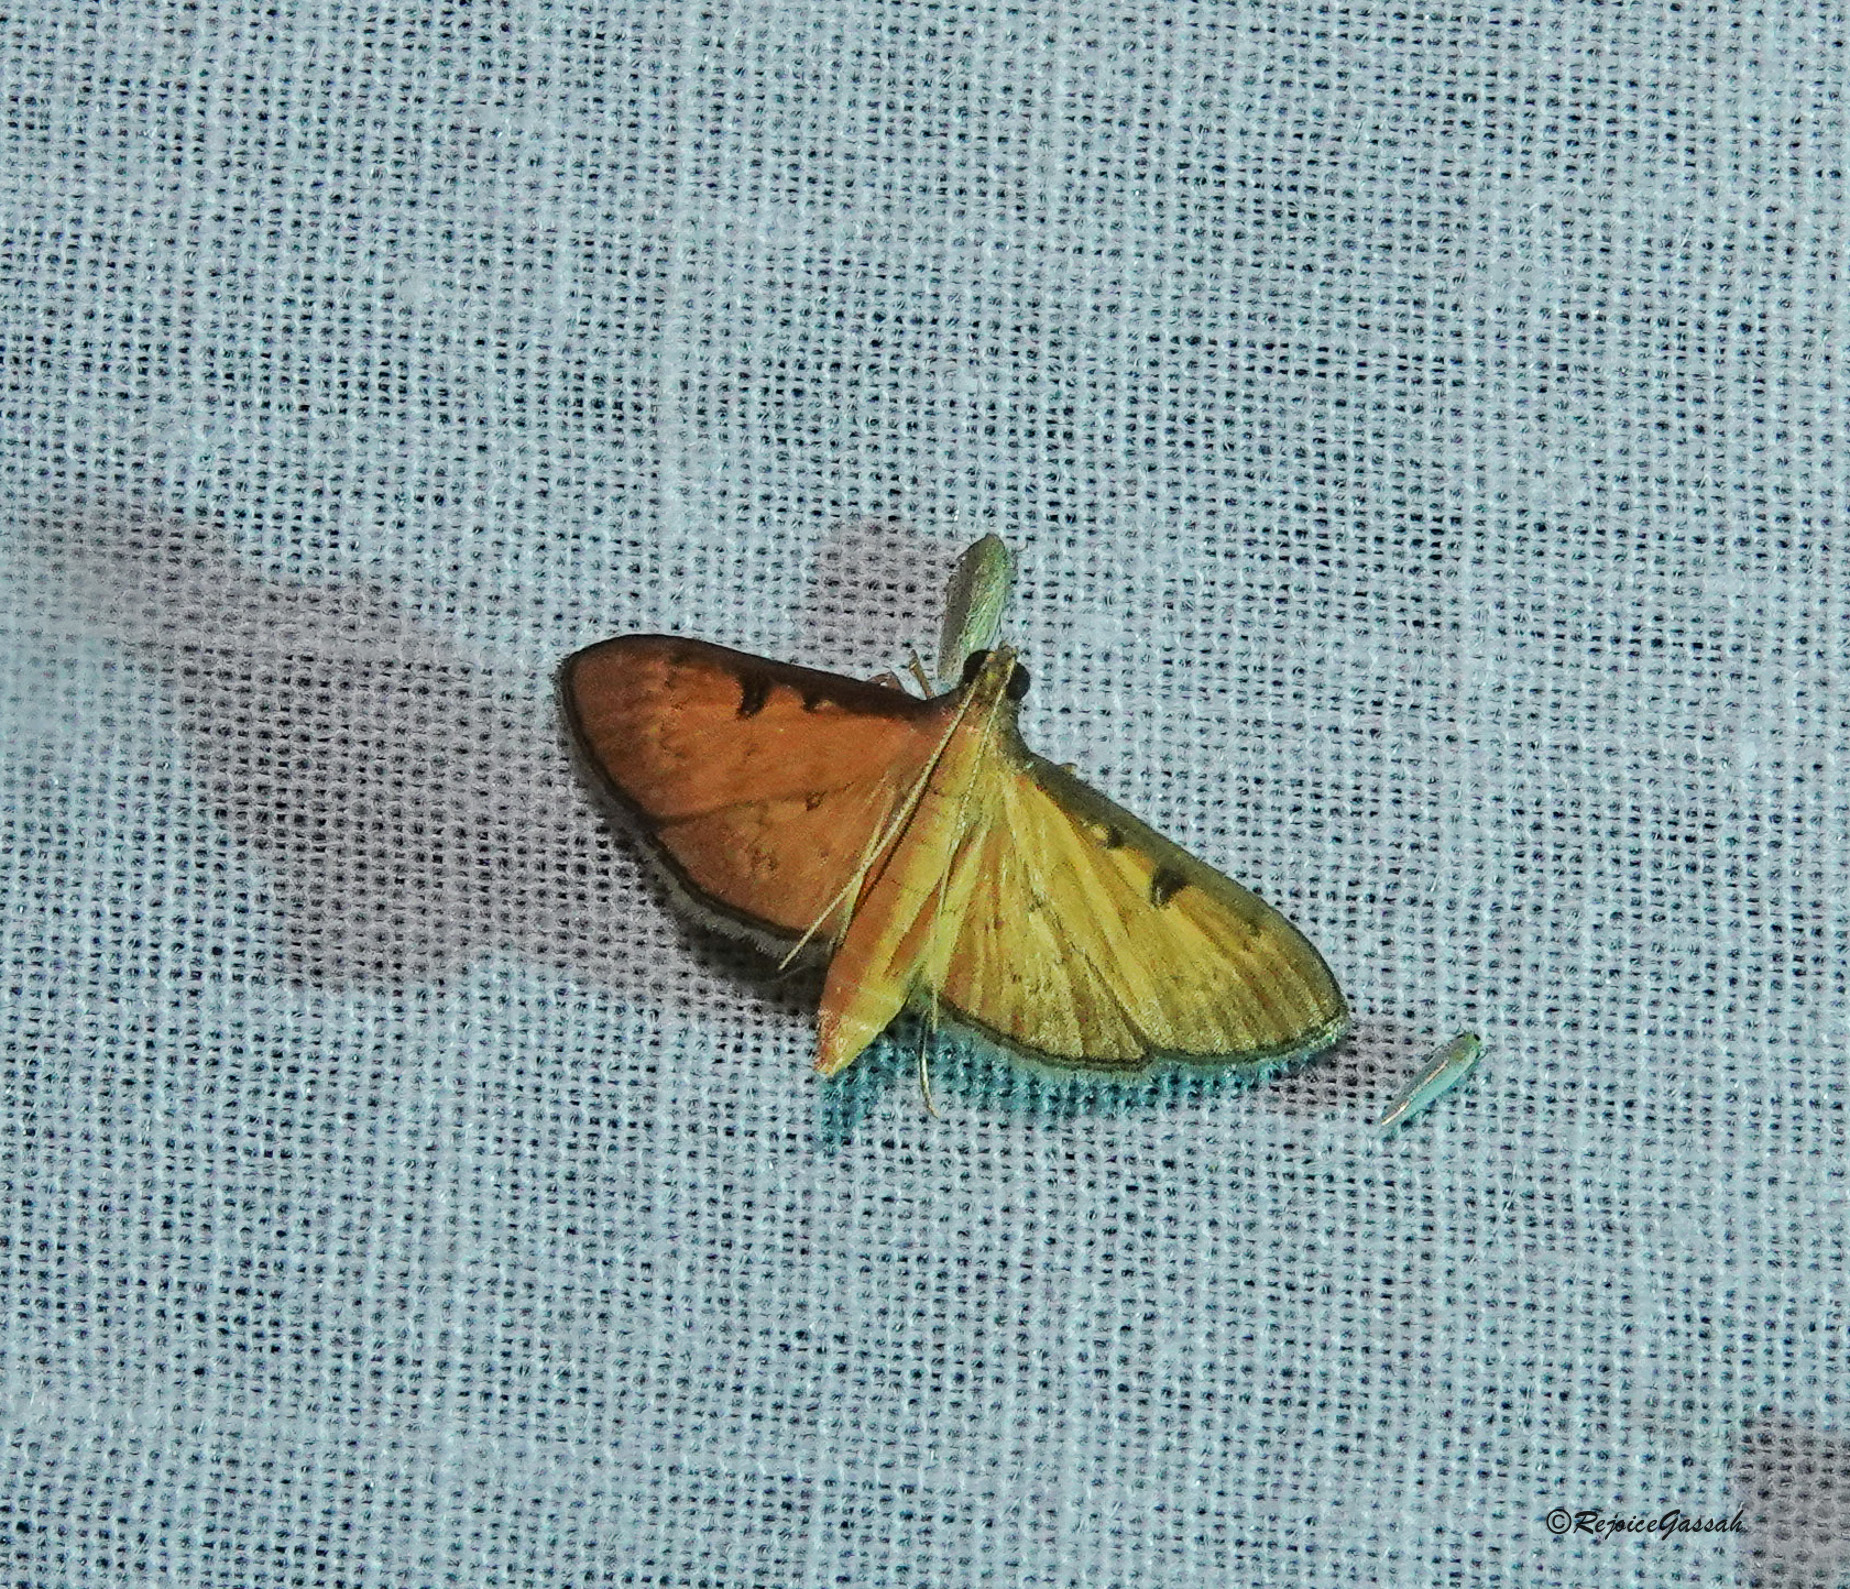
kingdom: Animalia
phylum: Arthropoda
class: Insecta
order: Lepidoptera
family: Crambidae
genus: Tatobotys
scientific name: Tatobotys biannulalis
